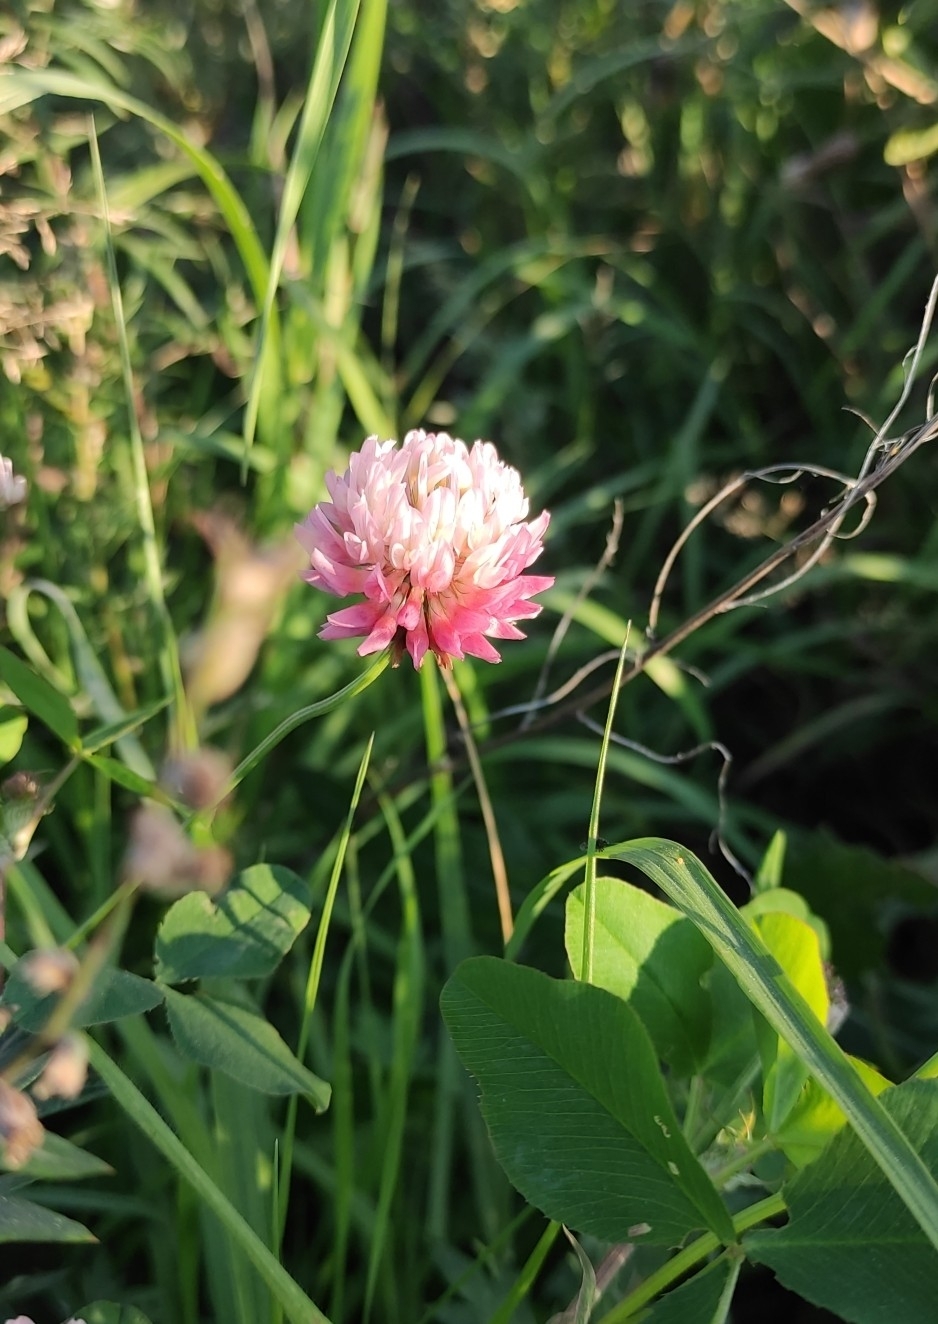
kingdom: Plantae
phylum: Tracheophyta
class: Magnoliopsida
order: Fabales
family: Fabaceae
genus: Trifolium
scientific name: Trifolium hybridum
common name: Alsike clover
